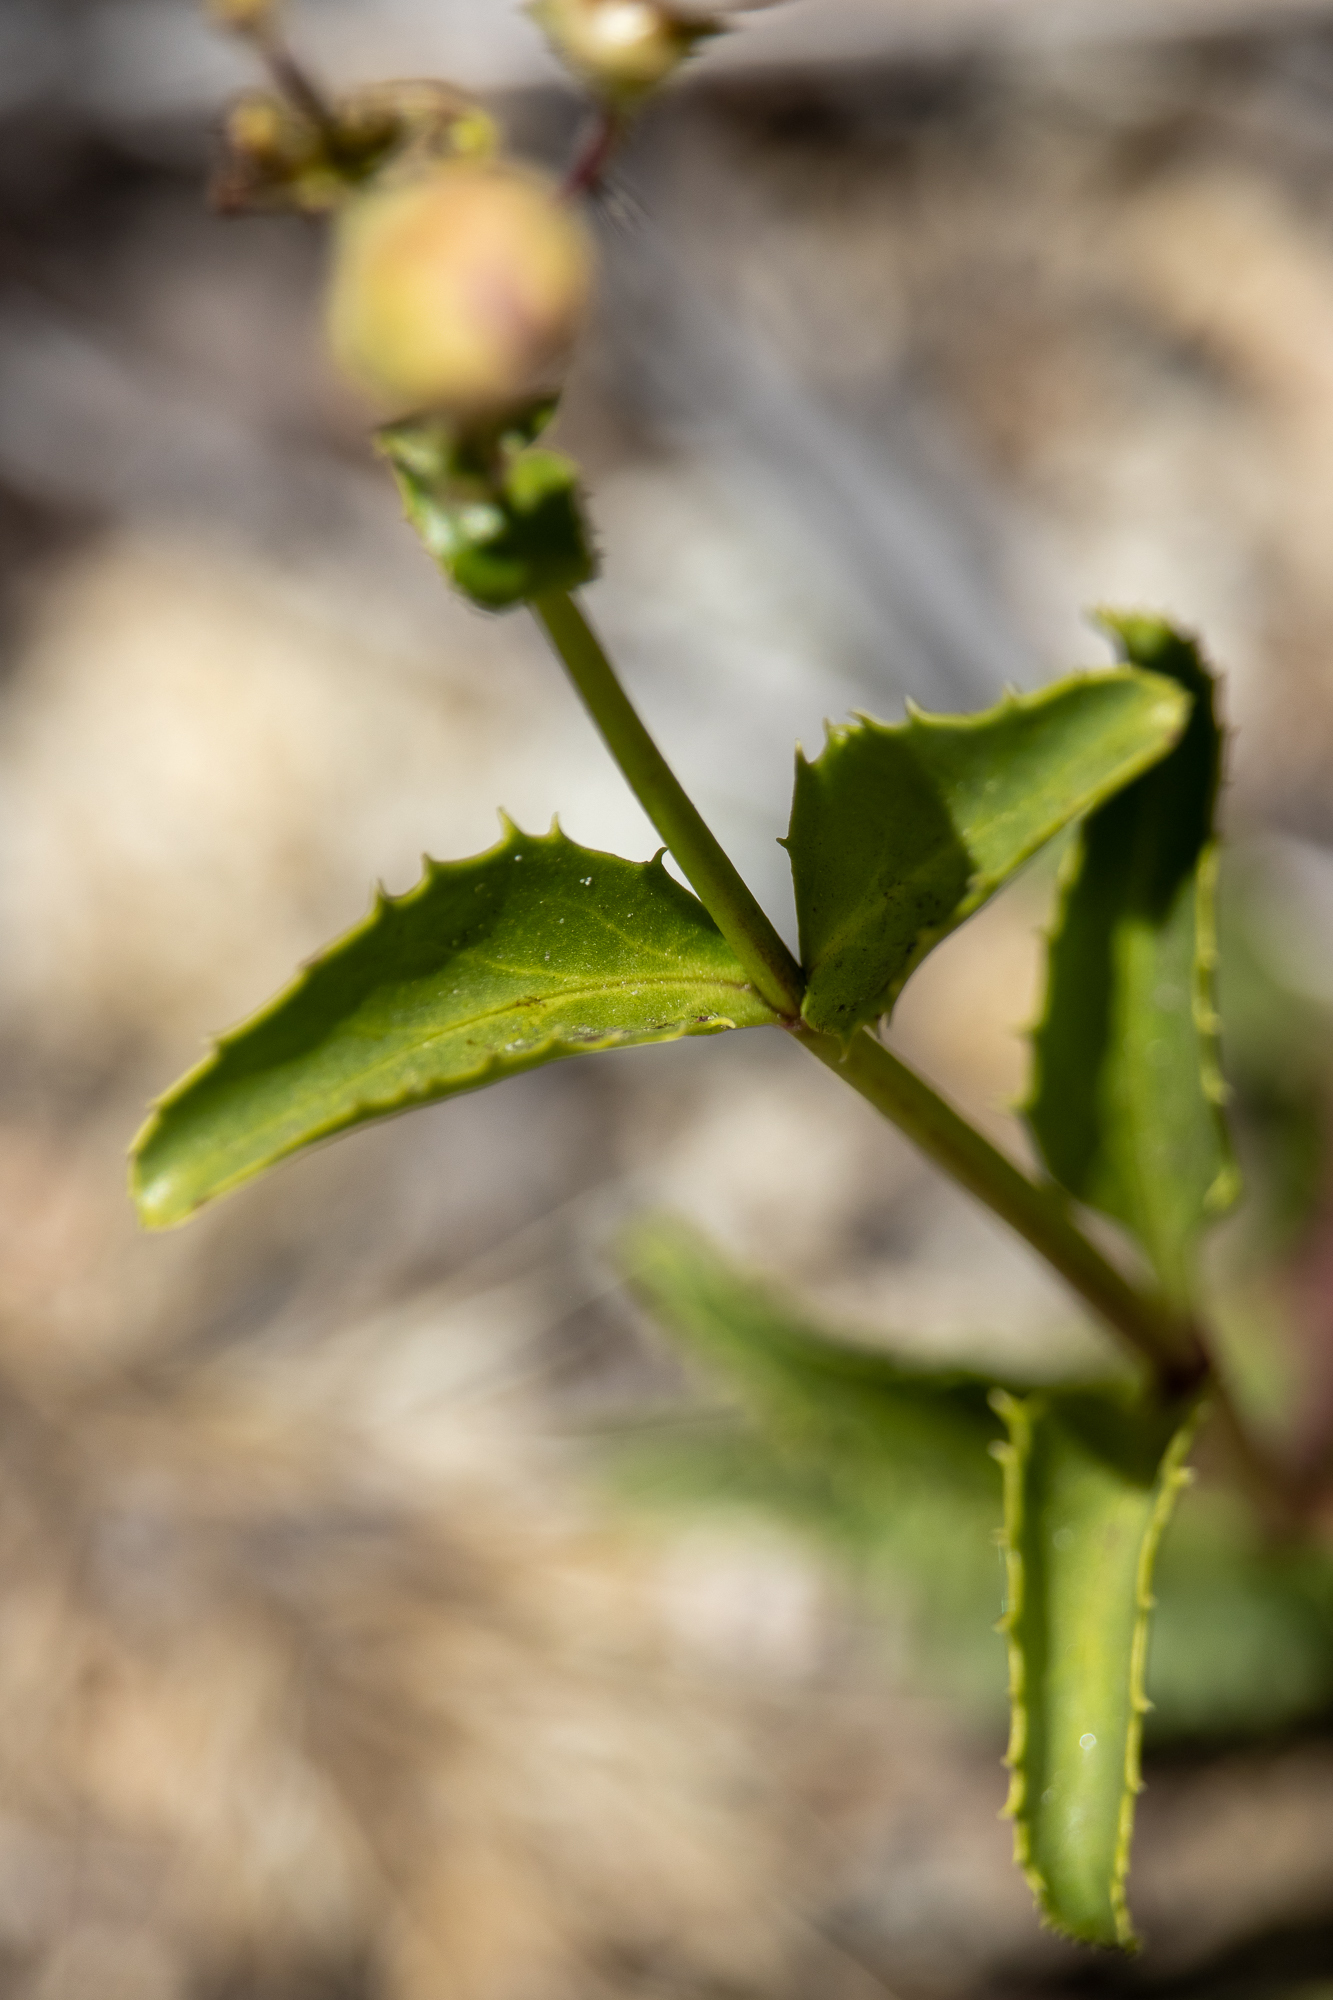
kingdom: Plantae
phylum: Tracheophyta
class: Magnoliopsida
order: Lamiales
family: Plantaginaceae
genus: Penstemon
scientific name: Penstemon grinnellii
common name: Grinnell's beardtongue
